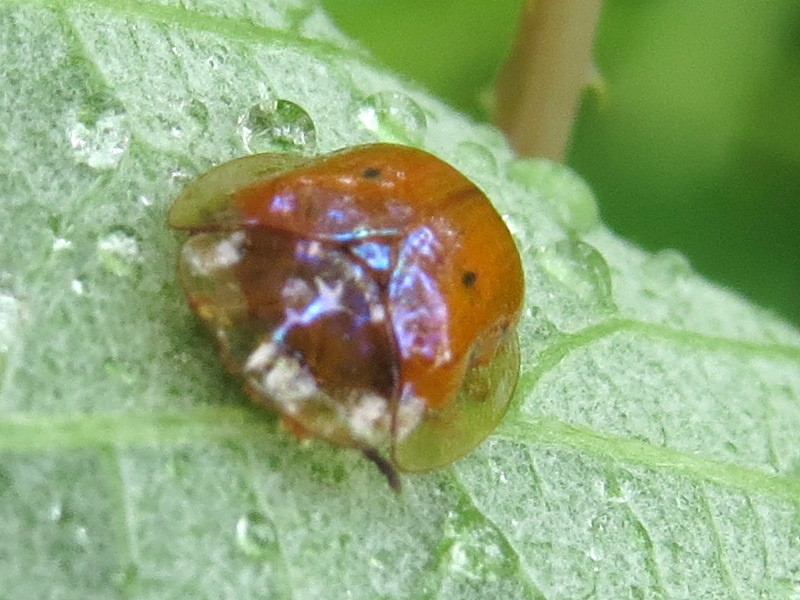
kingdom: Animalia
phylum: Arthropoda
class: Insecta
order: Coleoptera
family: Chrysomelidae
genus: Charidotella
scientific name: Charidotella sexpunctata
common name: Golden tortoise beetle
